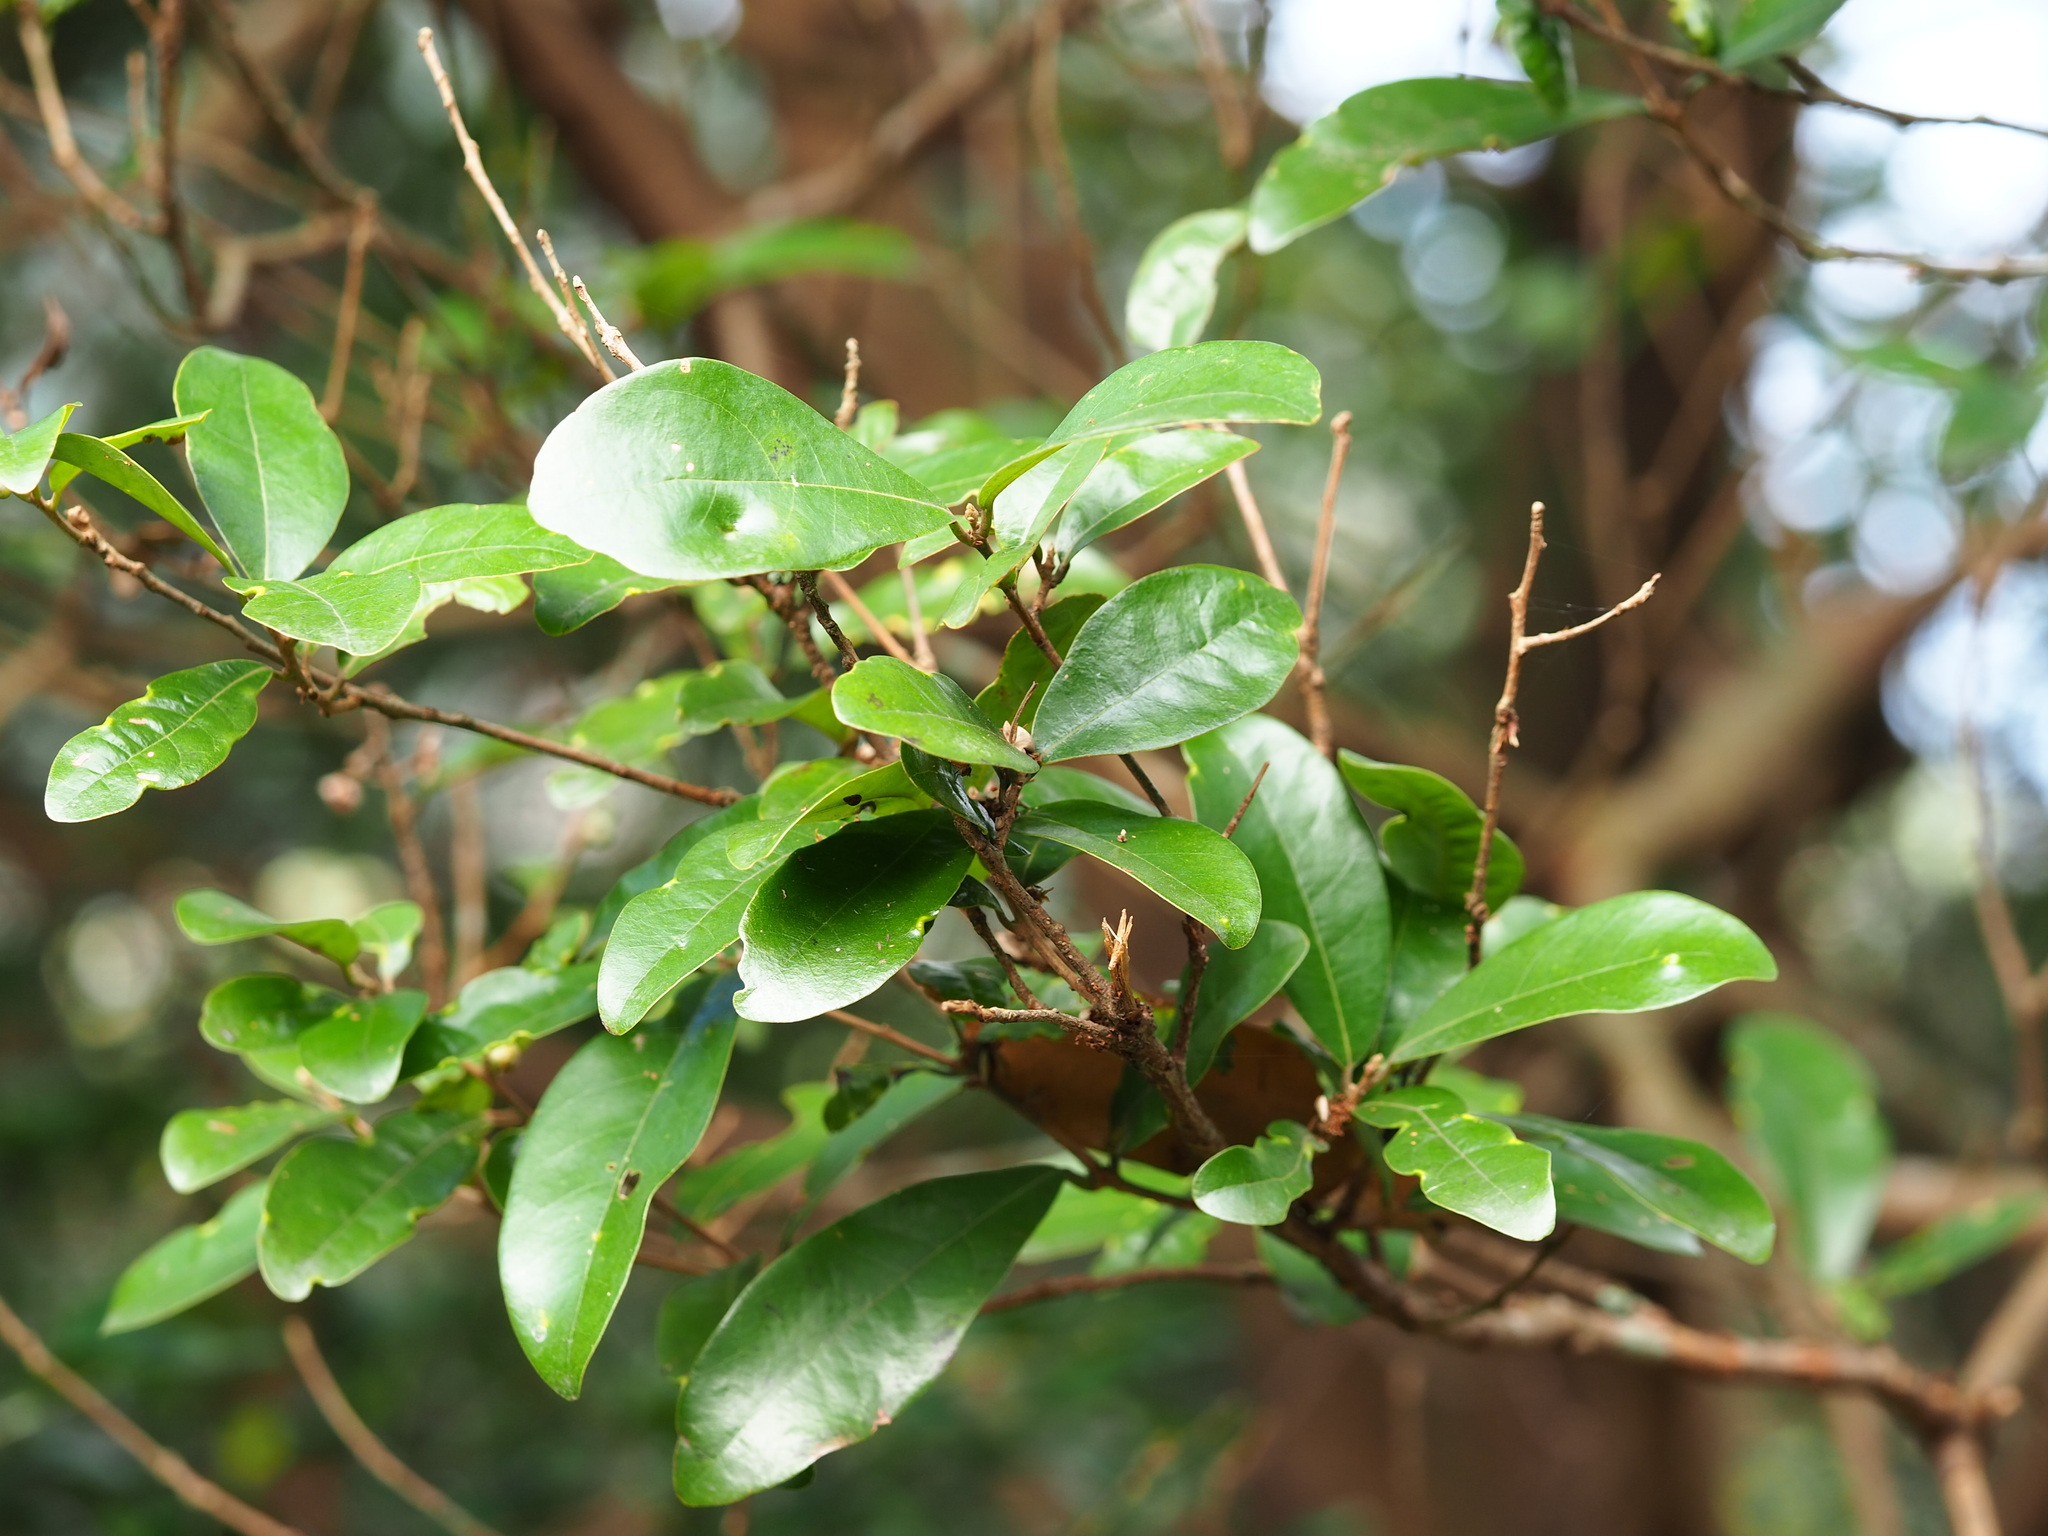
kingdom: Plantae
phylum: Tracheophyta
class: Magnoliopsida
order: Laurales
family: Lauraceae
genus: Litsea
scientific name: Litsea hypophaea
